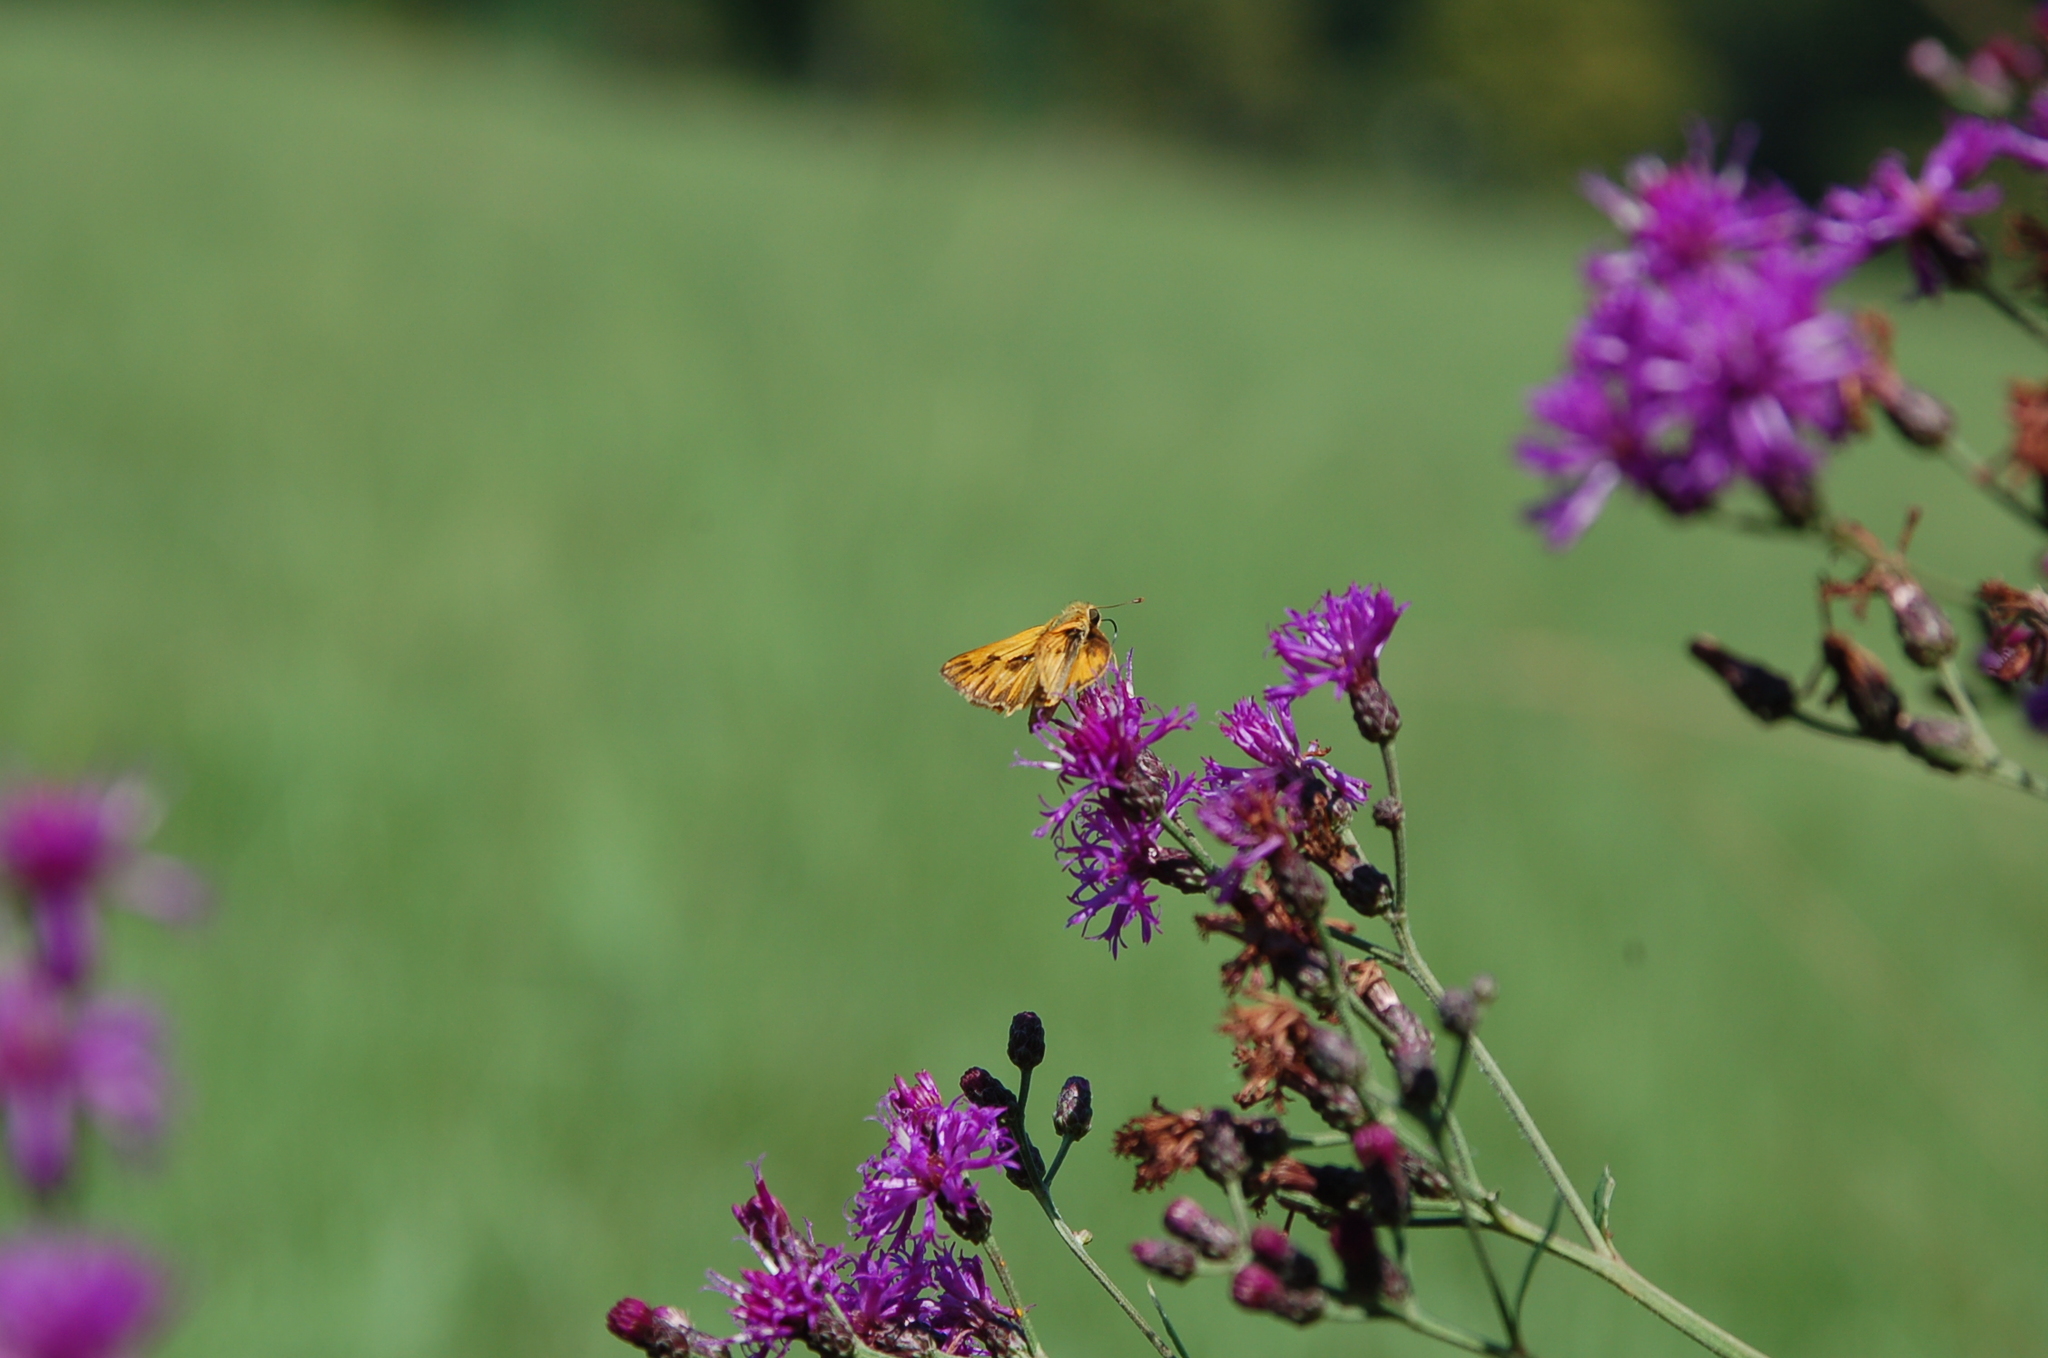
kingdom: Animalia
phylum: Arthropoda
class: Insecta
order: Lepidoptera
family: Hesperiidae
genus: Hylephila
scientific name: Hylephila phyleus
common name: Fiery skipper
